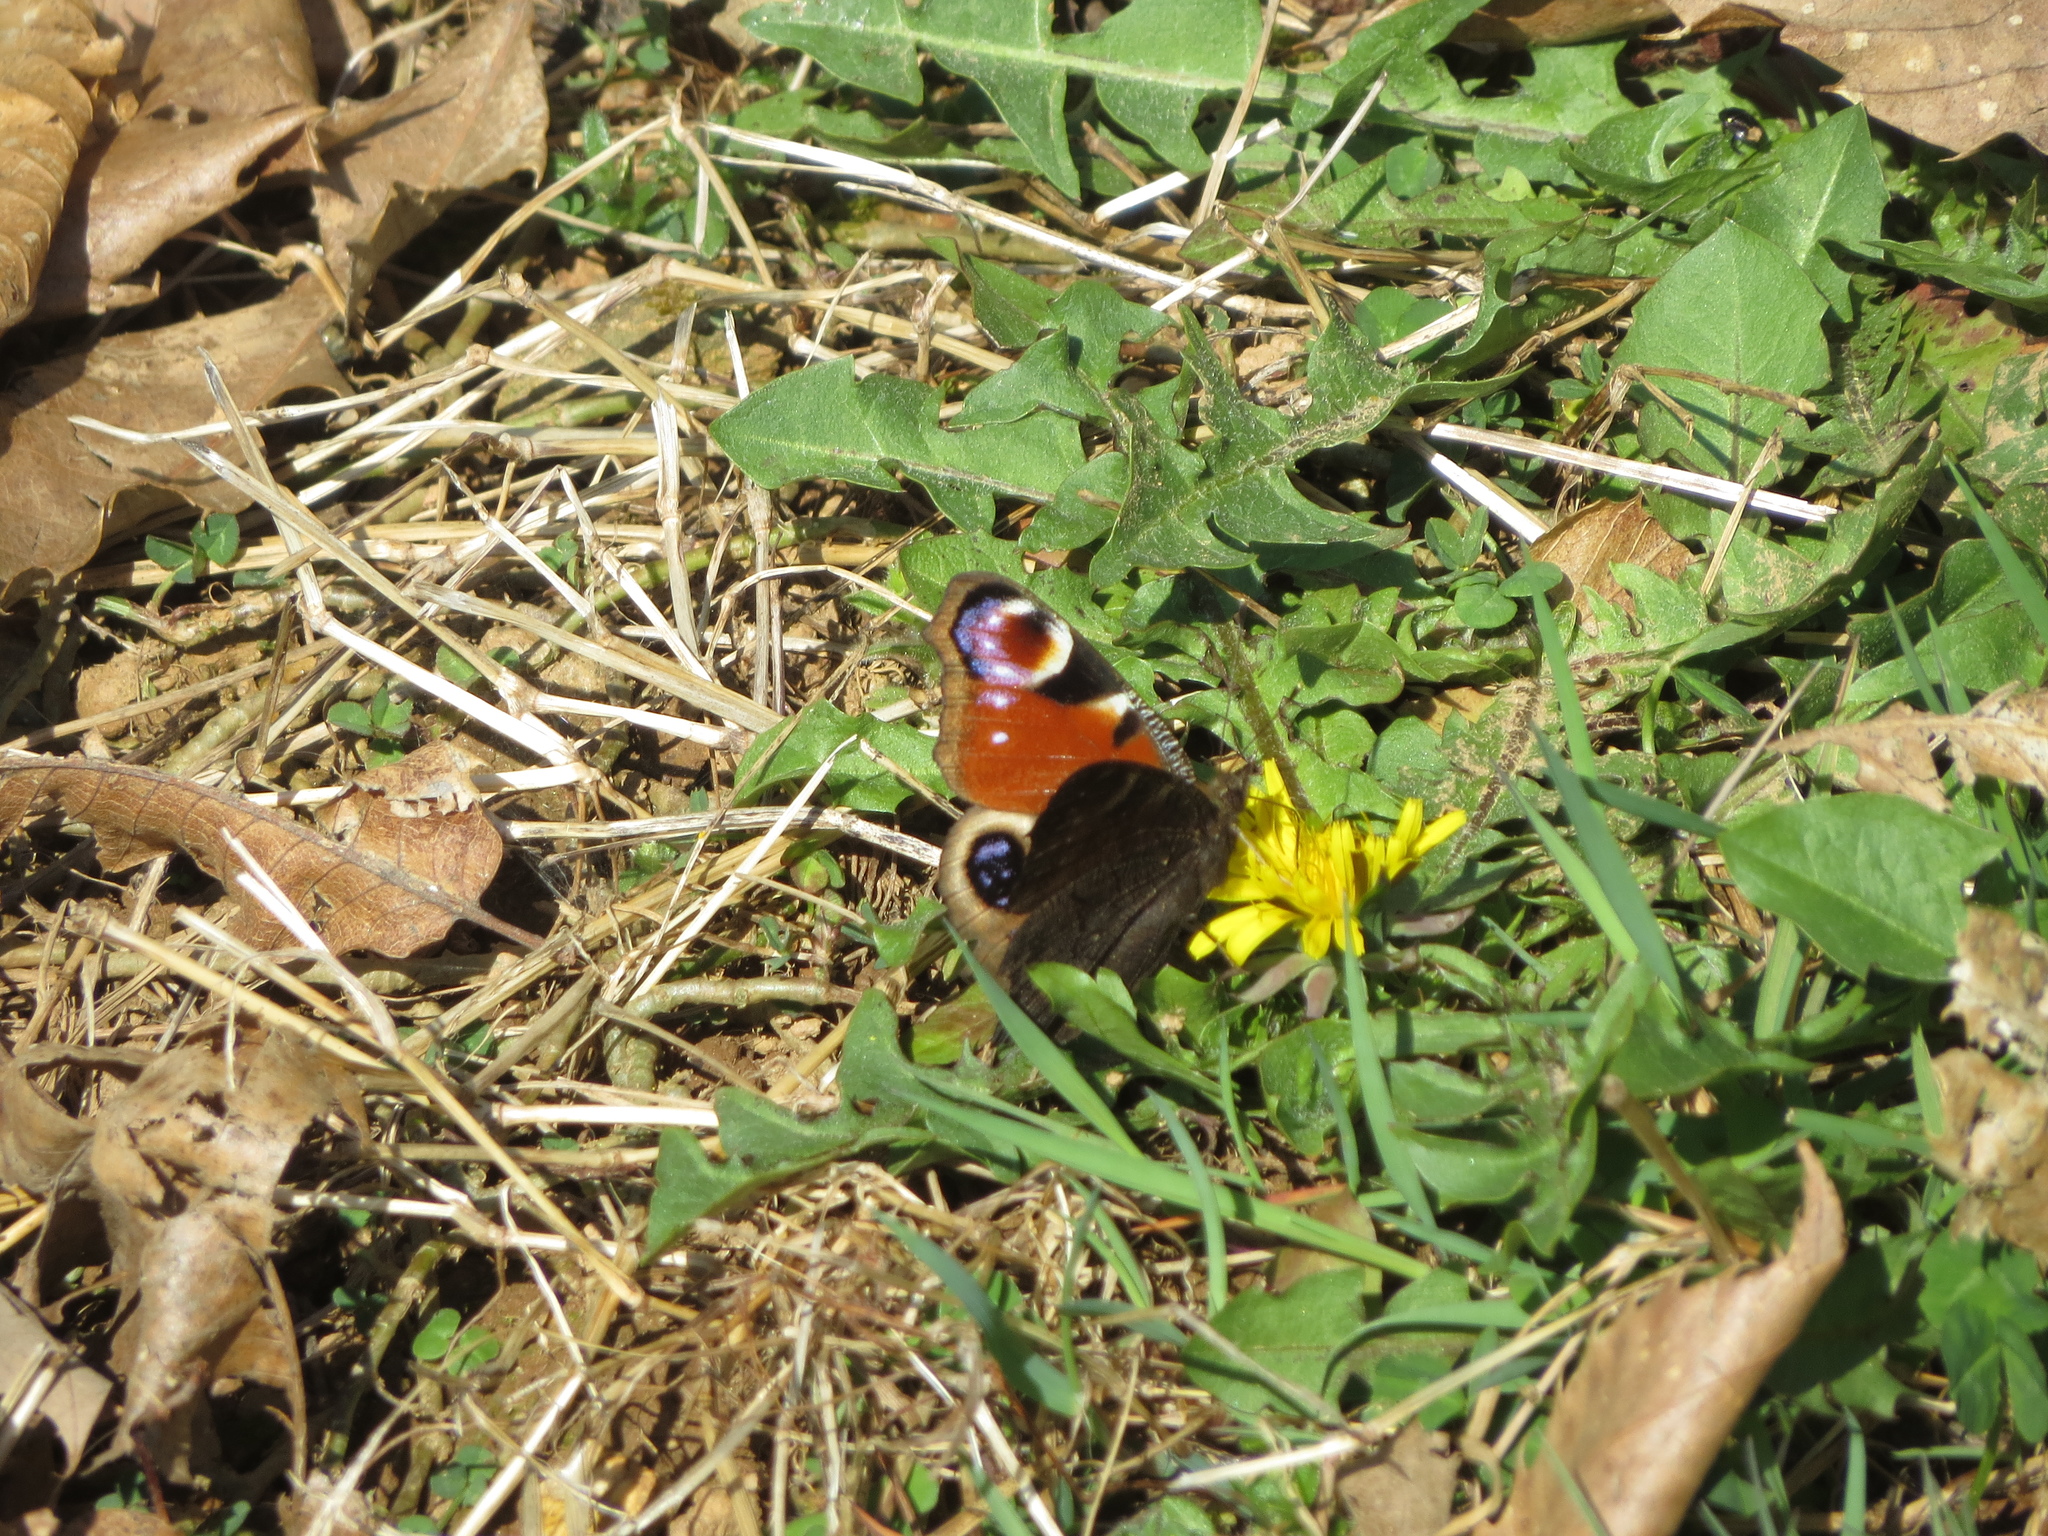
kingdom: Animalia
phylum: Arthropoda
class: Insecta
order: Lepidoptera
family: Nymphalidae
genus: Aglais
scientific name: Aglais io
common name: Peacock
